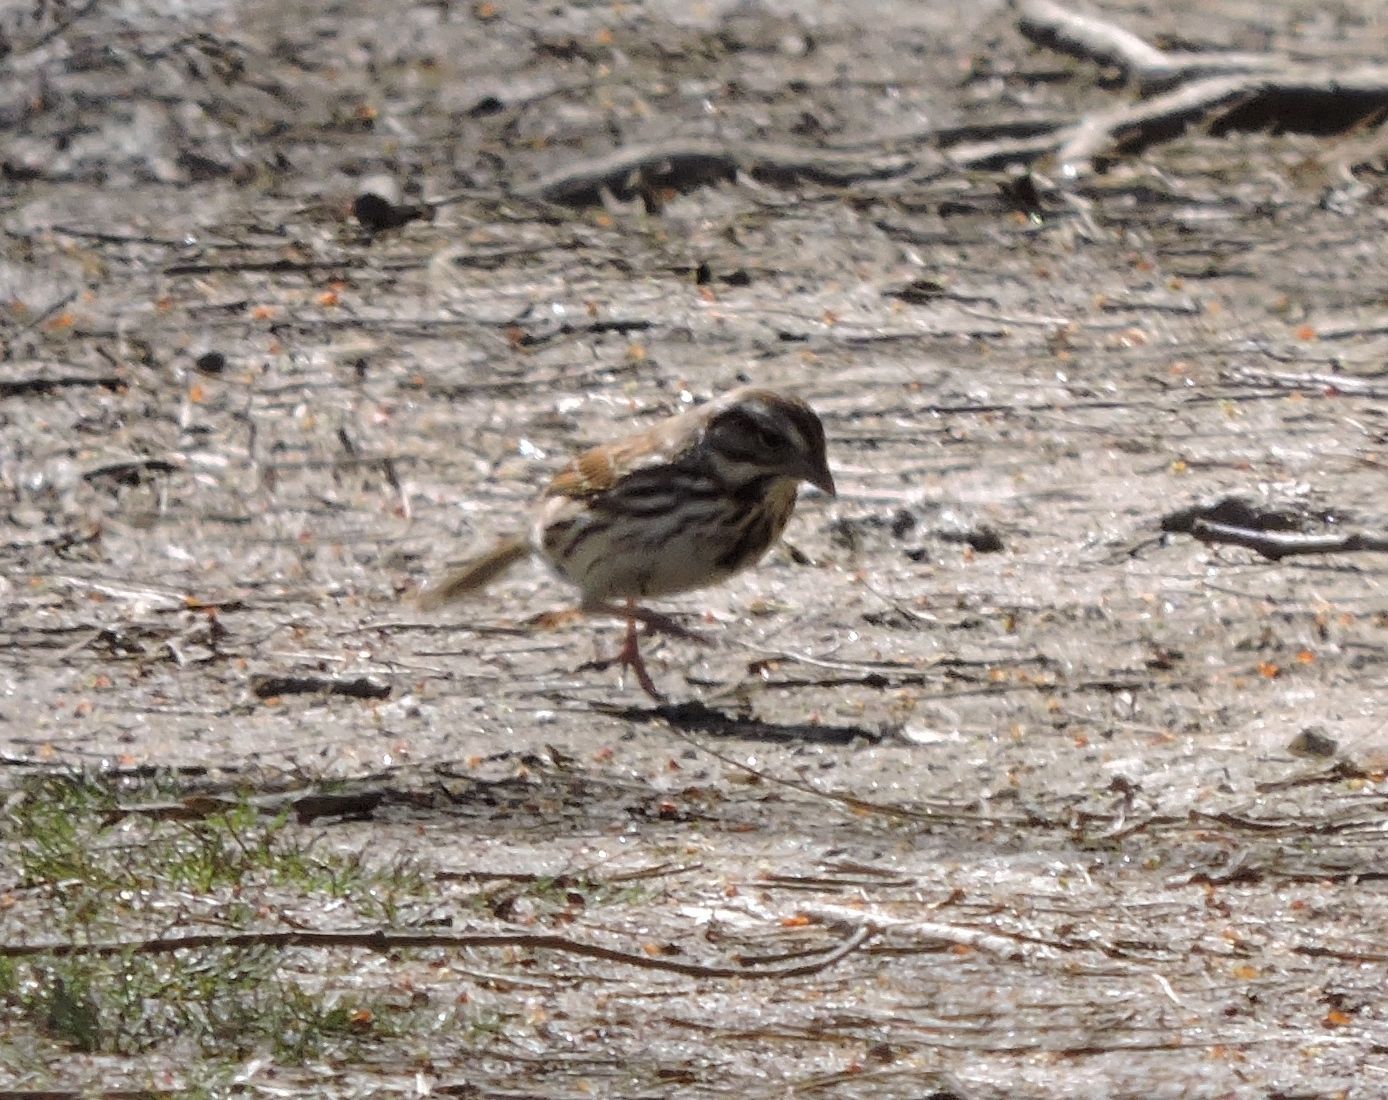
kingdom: Animalia
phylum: Chordata
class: Aves
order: Passeriformes
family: Passerellidae
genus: Melospiza
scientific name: Melospiza melodia
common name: Song sparrow
